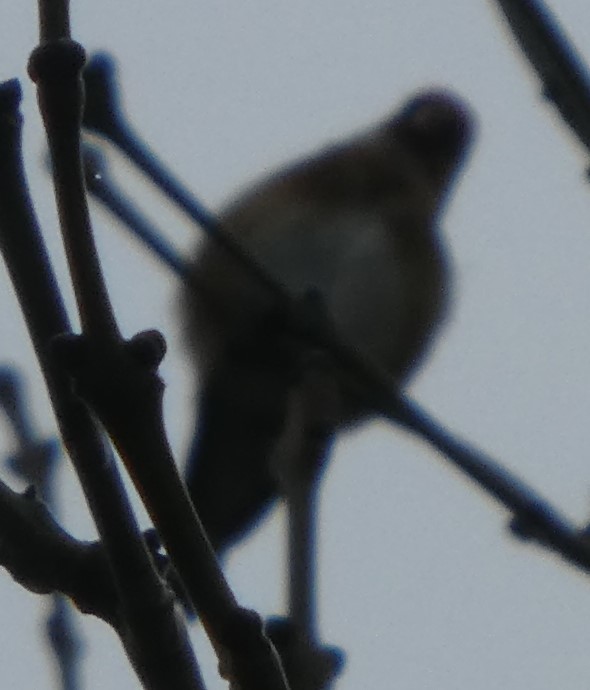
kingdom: Animalia
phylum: Chordata
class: Aves
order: Passeriformes
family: Fringillidae
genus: Carduelis
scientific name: Carduelis carduelis
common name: European goldfinch
